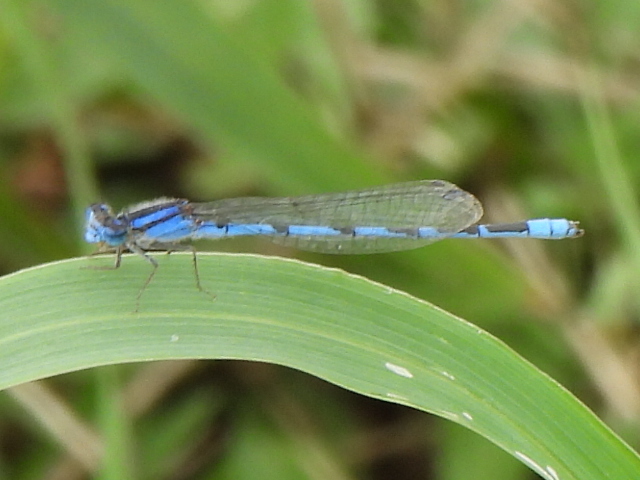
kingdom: Animalia
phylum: Arthropoda
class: Insecta
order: Odonata
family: Coenagrionidae
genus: Enallagma
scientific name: Enallagma civile
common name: Damselfly
